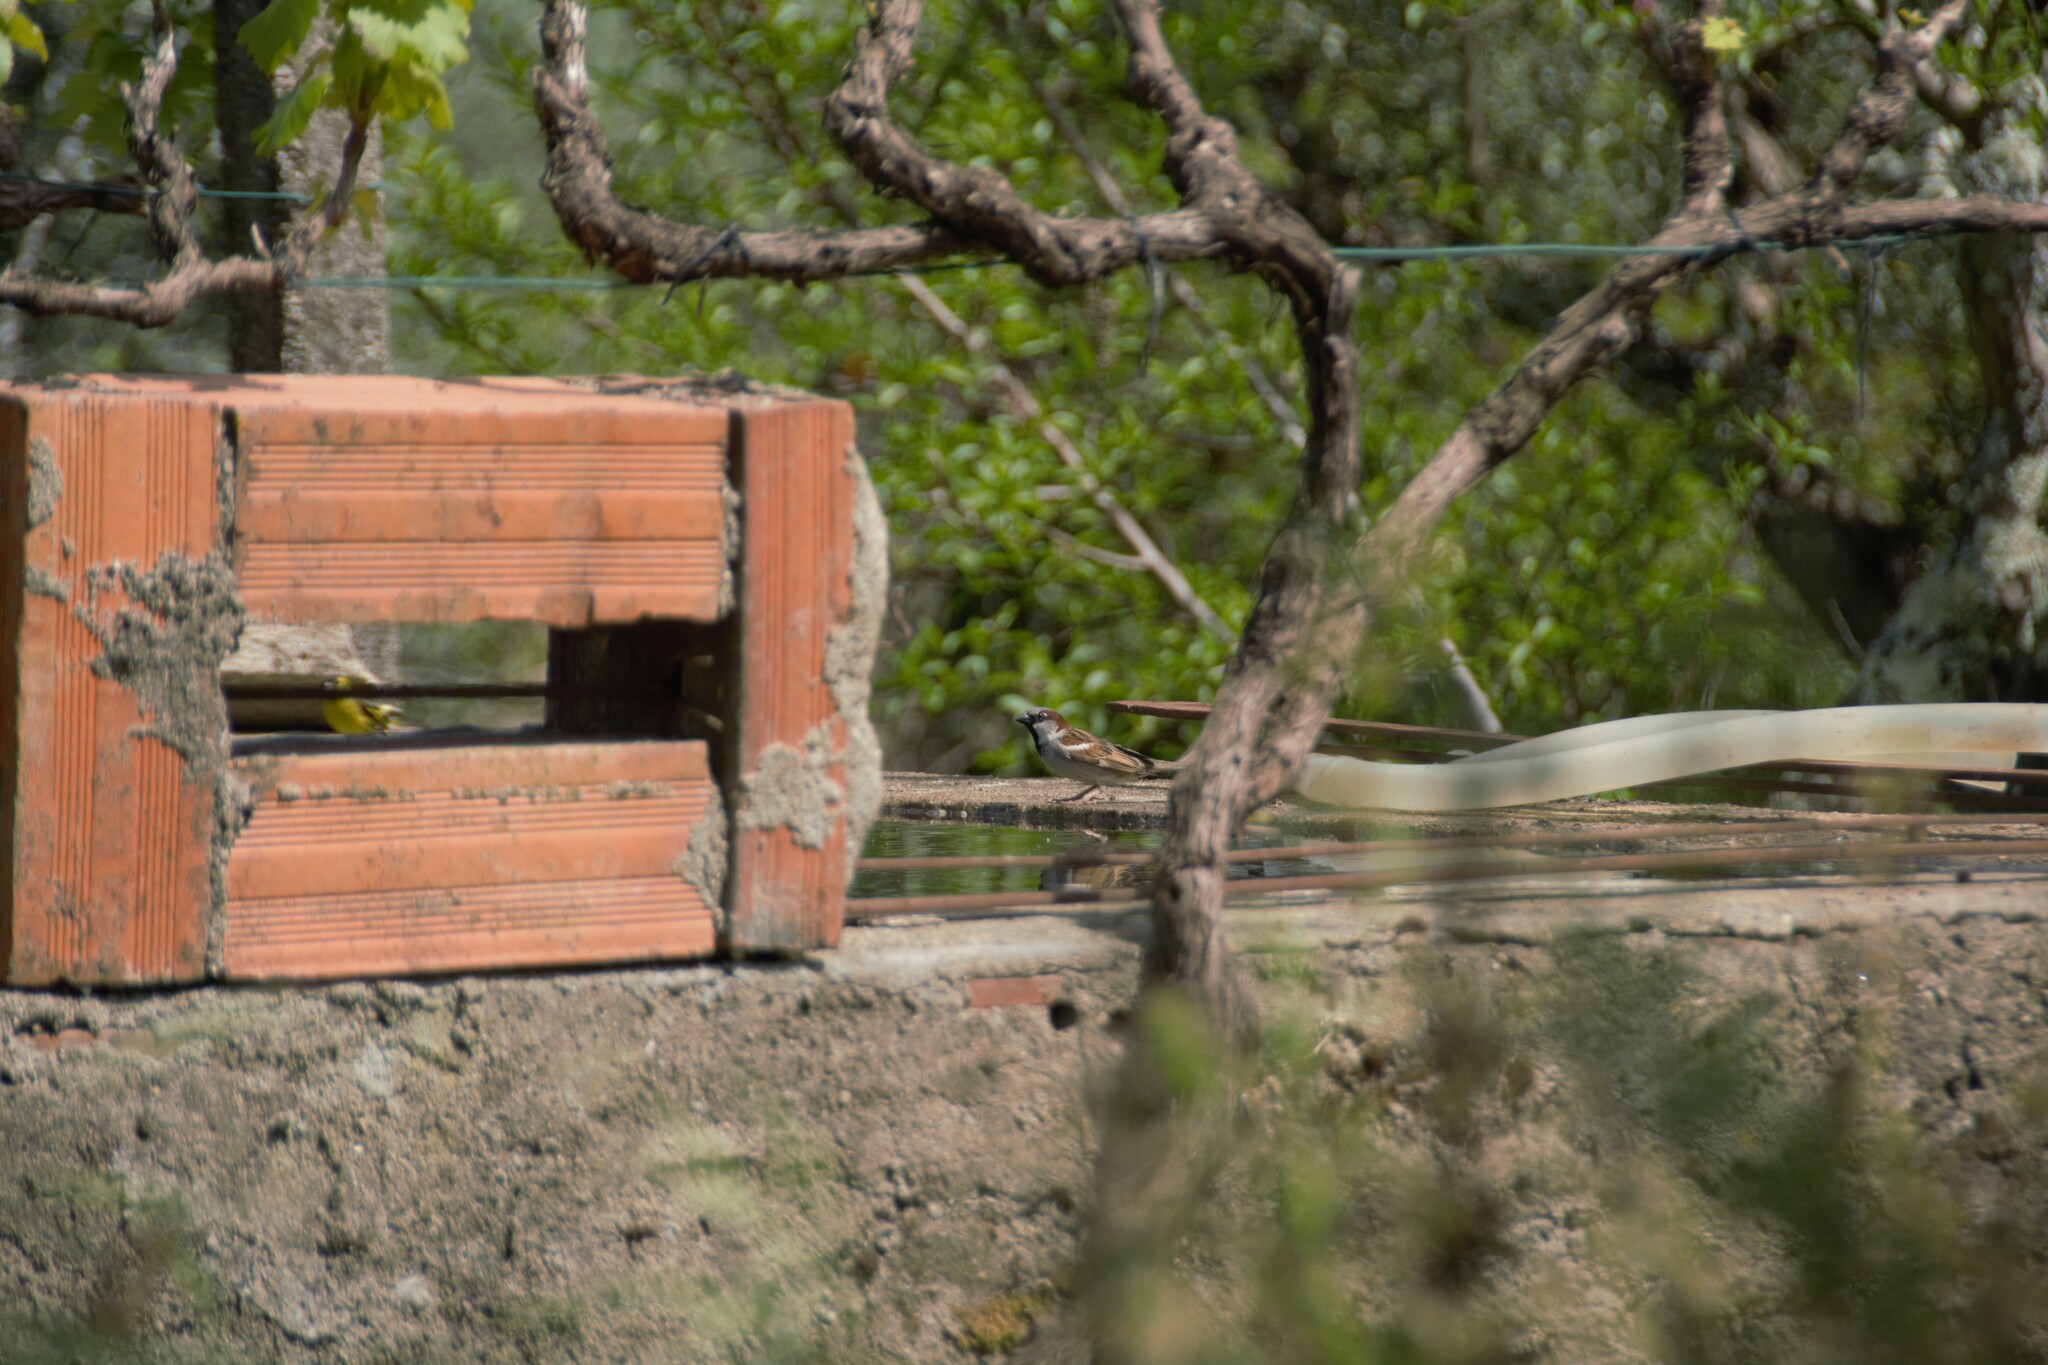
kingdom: Animalia
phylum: Chordata
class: Aves
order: Passeriformes
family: Passeridae
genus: Passer
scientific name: Passer domesticus
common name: House sparrow
